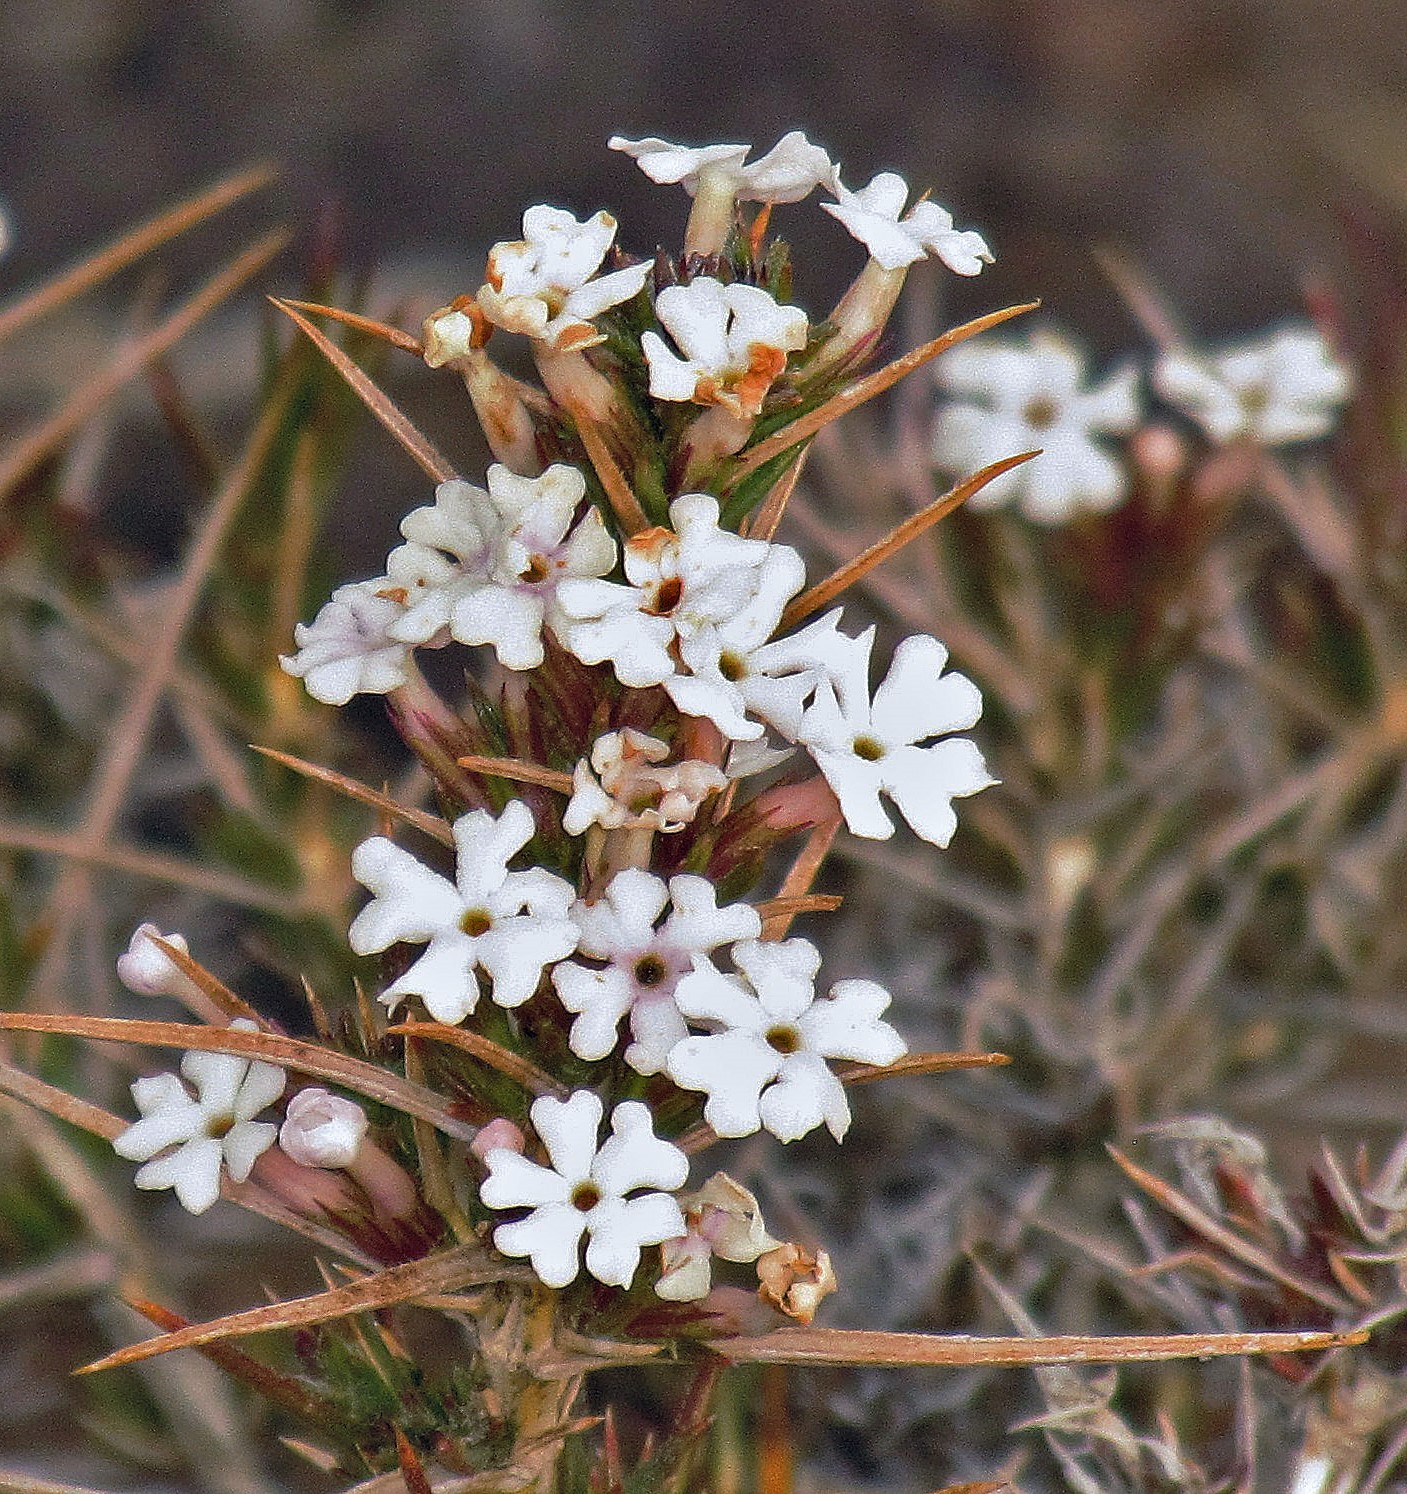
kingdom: Plantae
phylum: Tracheophyta
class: Magnoliopsida
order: Lamiales
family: Verbenaceae
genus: Junellia
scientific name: Junellia toninii
